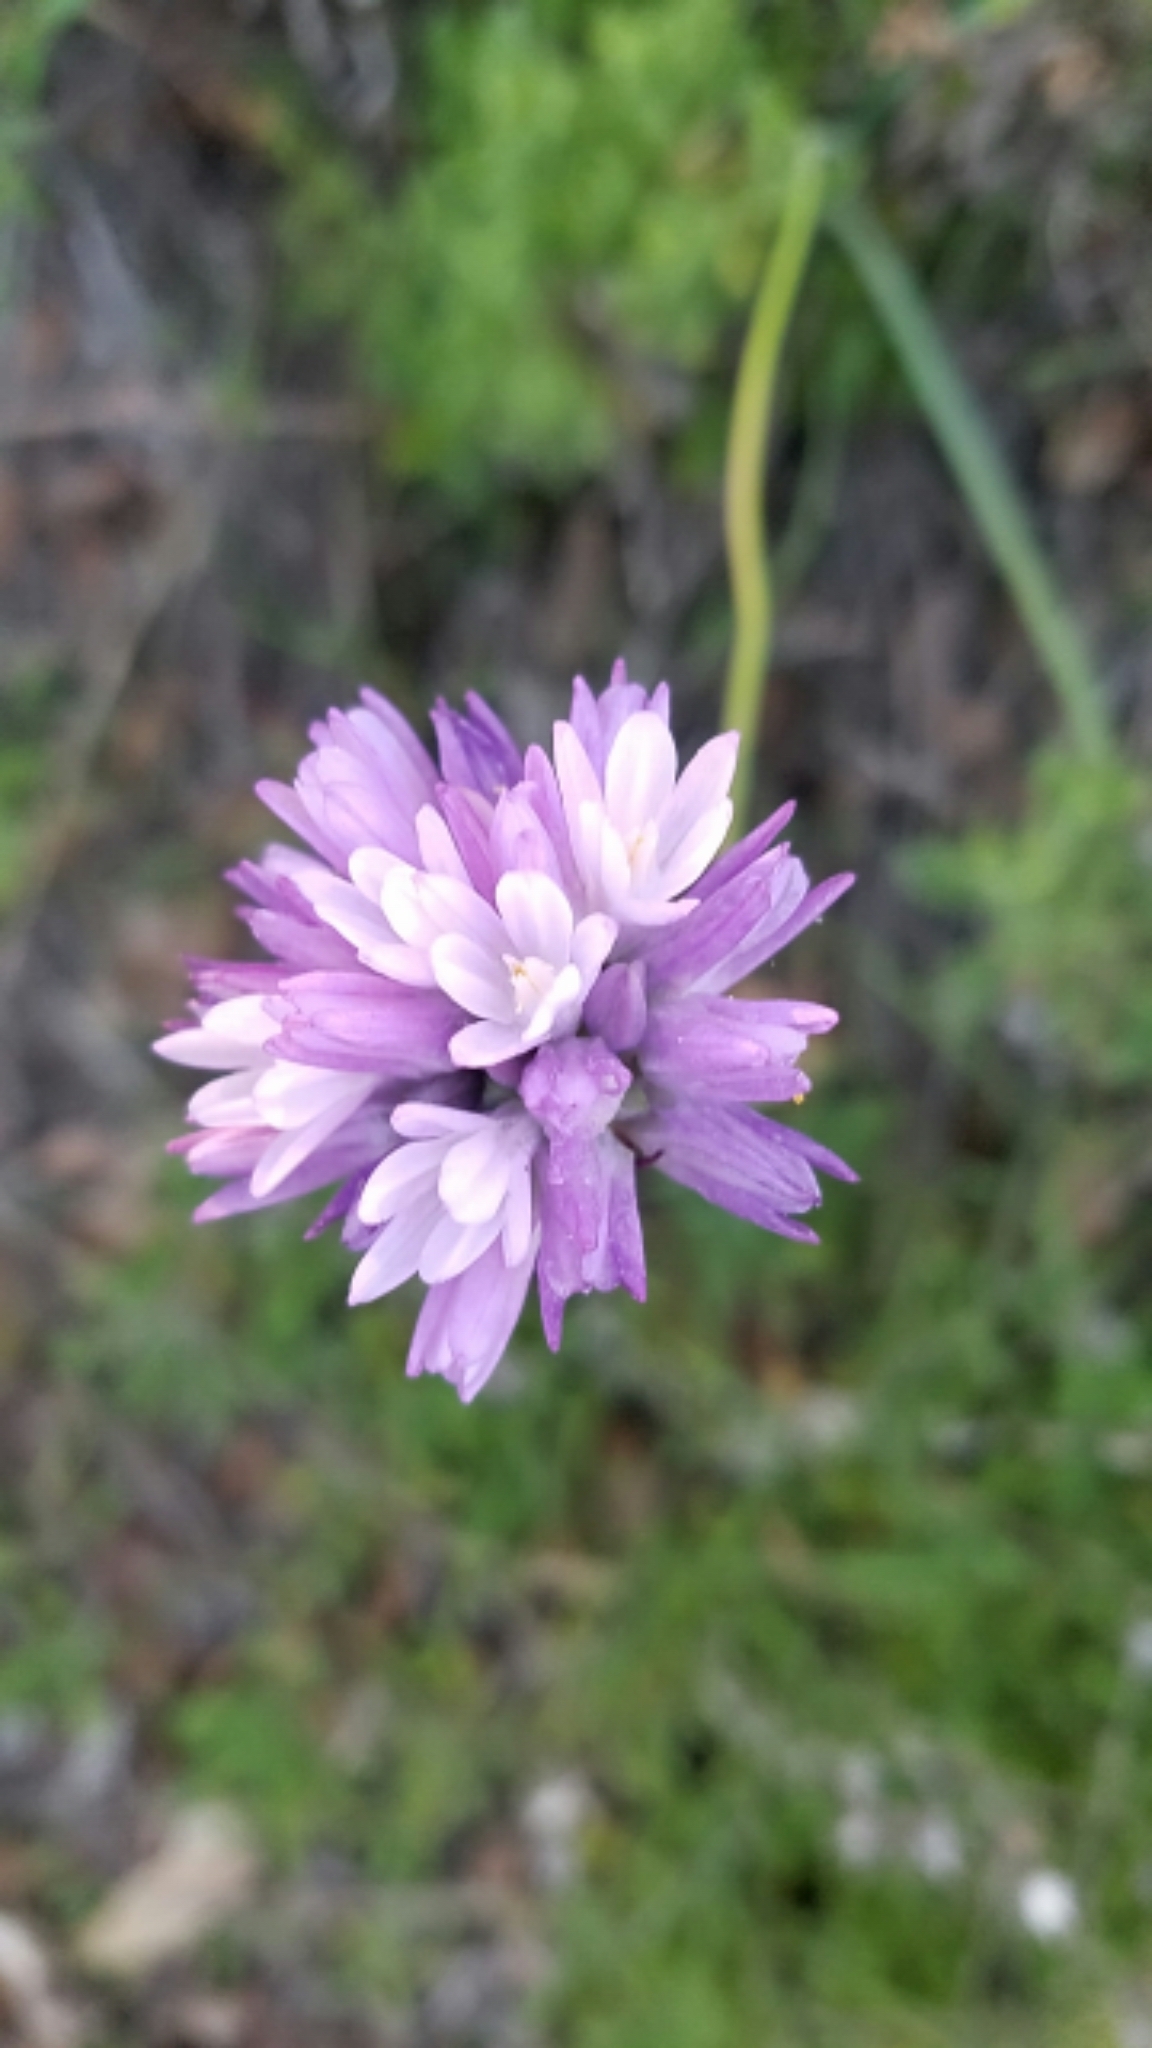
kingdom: Plantae
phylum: Tracheophyta
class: Liliopsida
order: Asparagales
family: Asparagaceae
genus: Dipterostemon
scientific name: Dipterostemon capitatus
